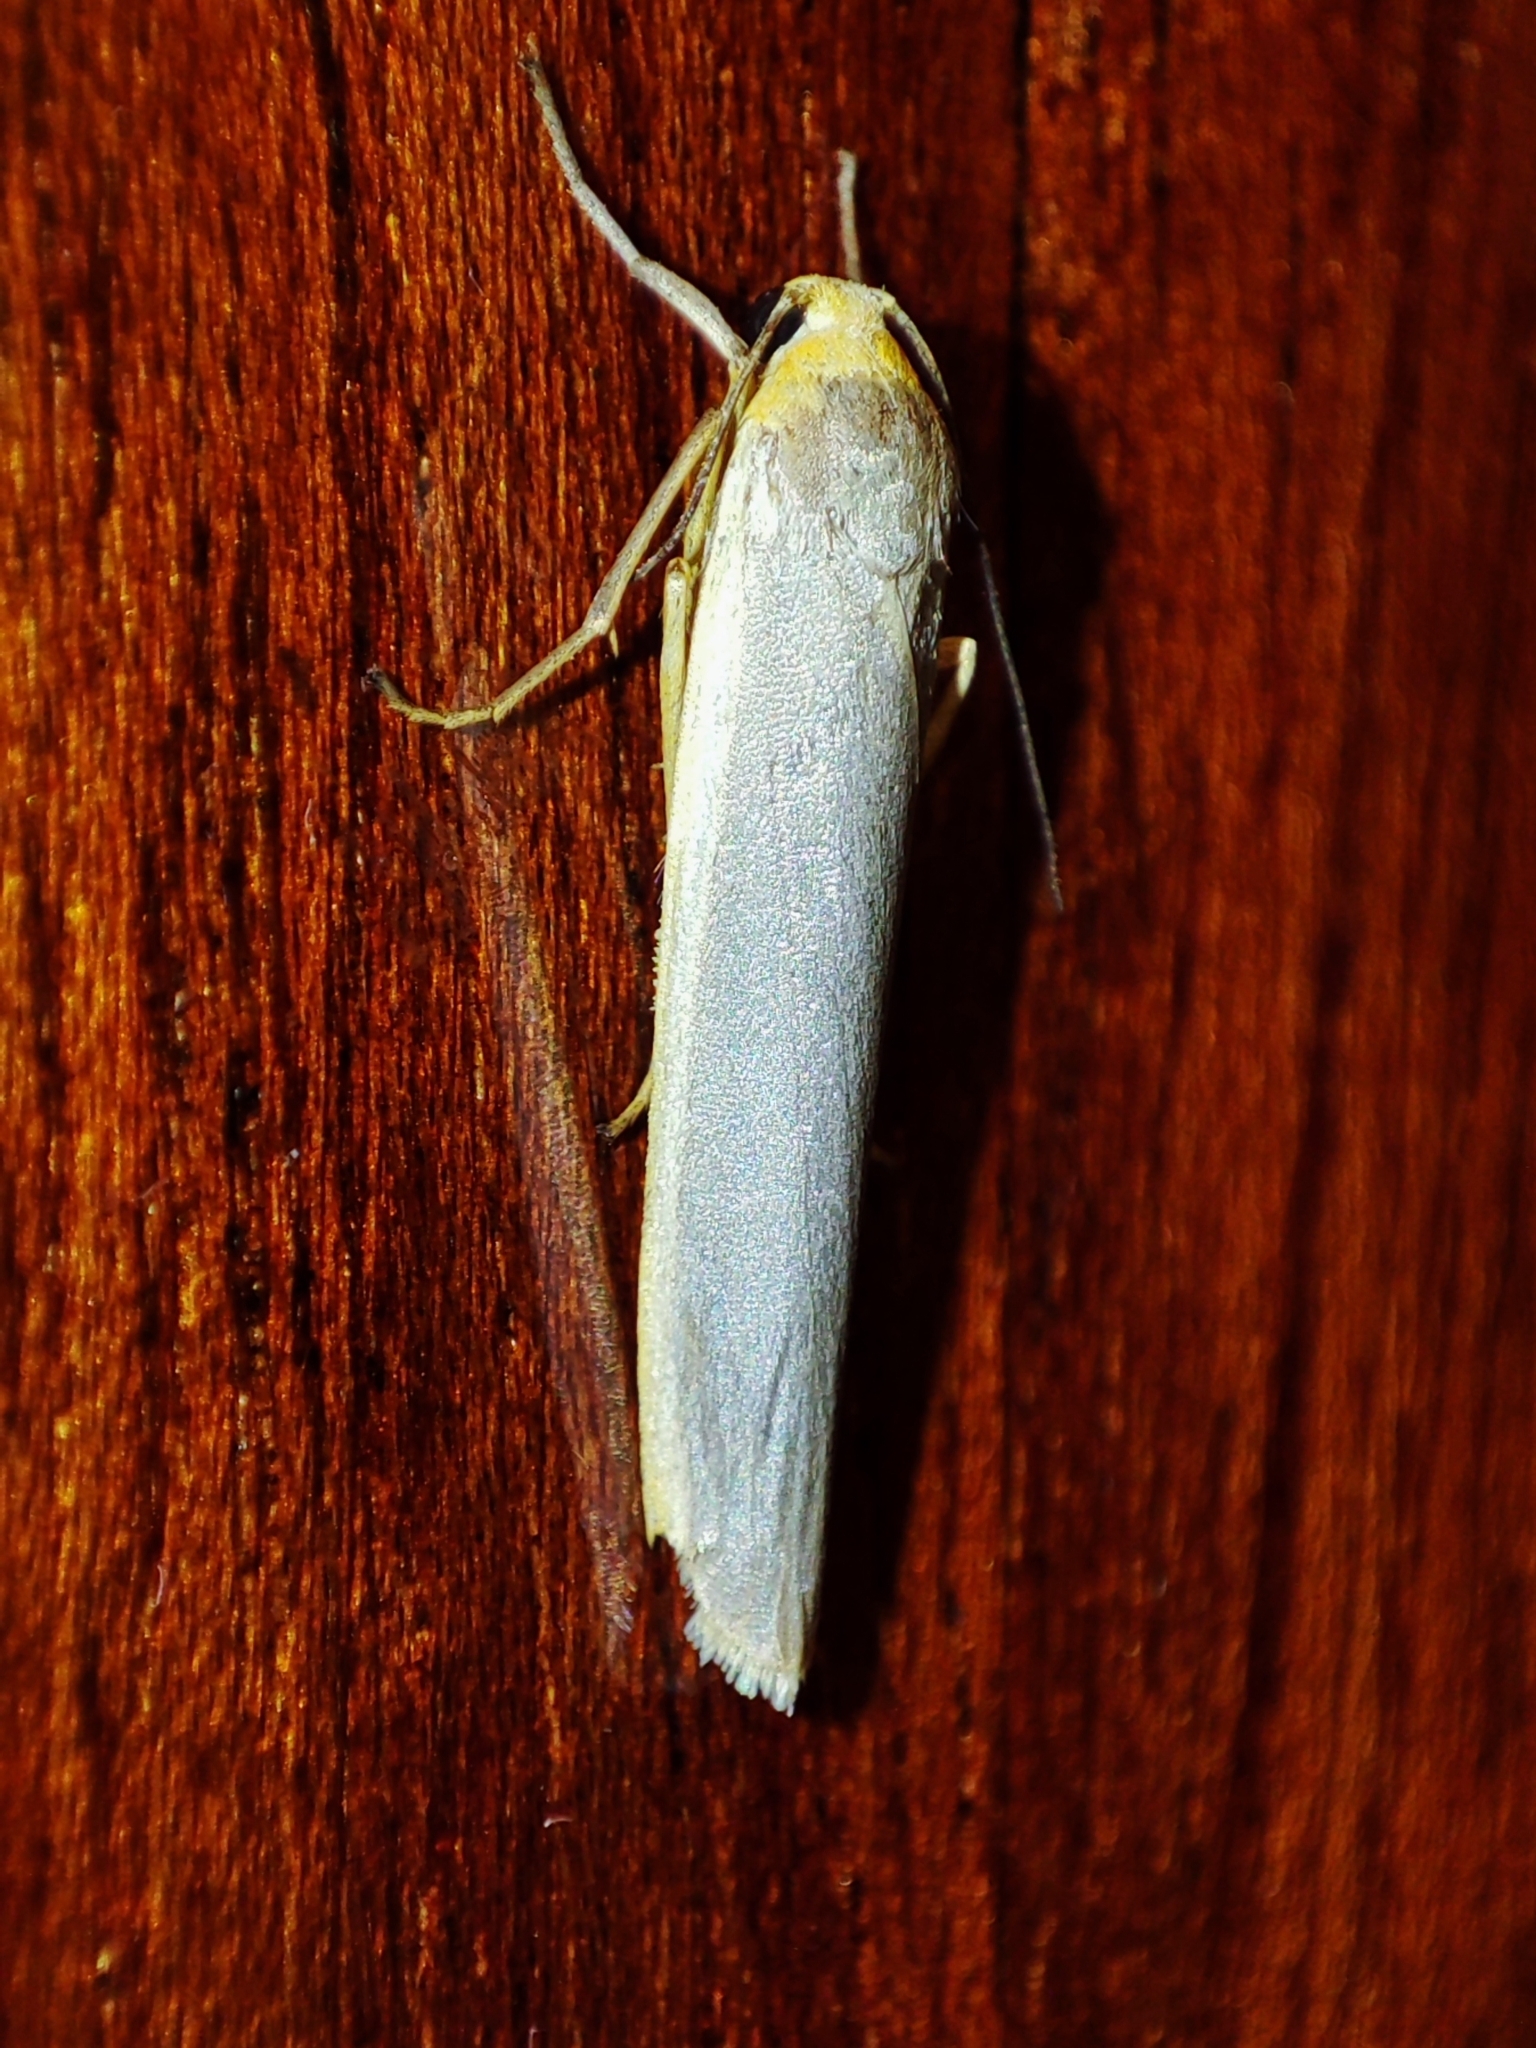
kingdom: Animalia
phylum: Arthropoda
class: Insecta
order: Lepidoptera
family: Erebidae
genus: Manulea
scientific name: Manulea complana
